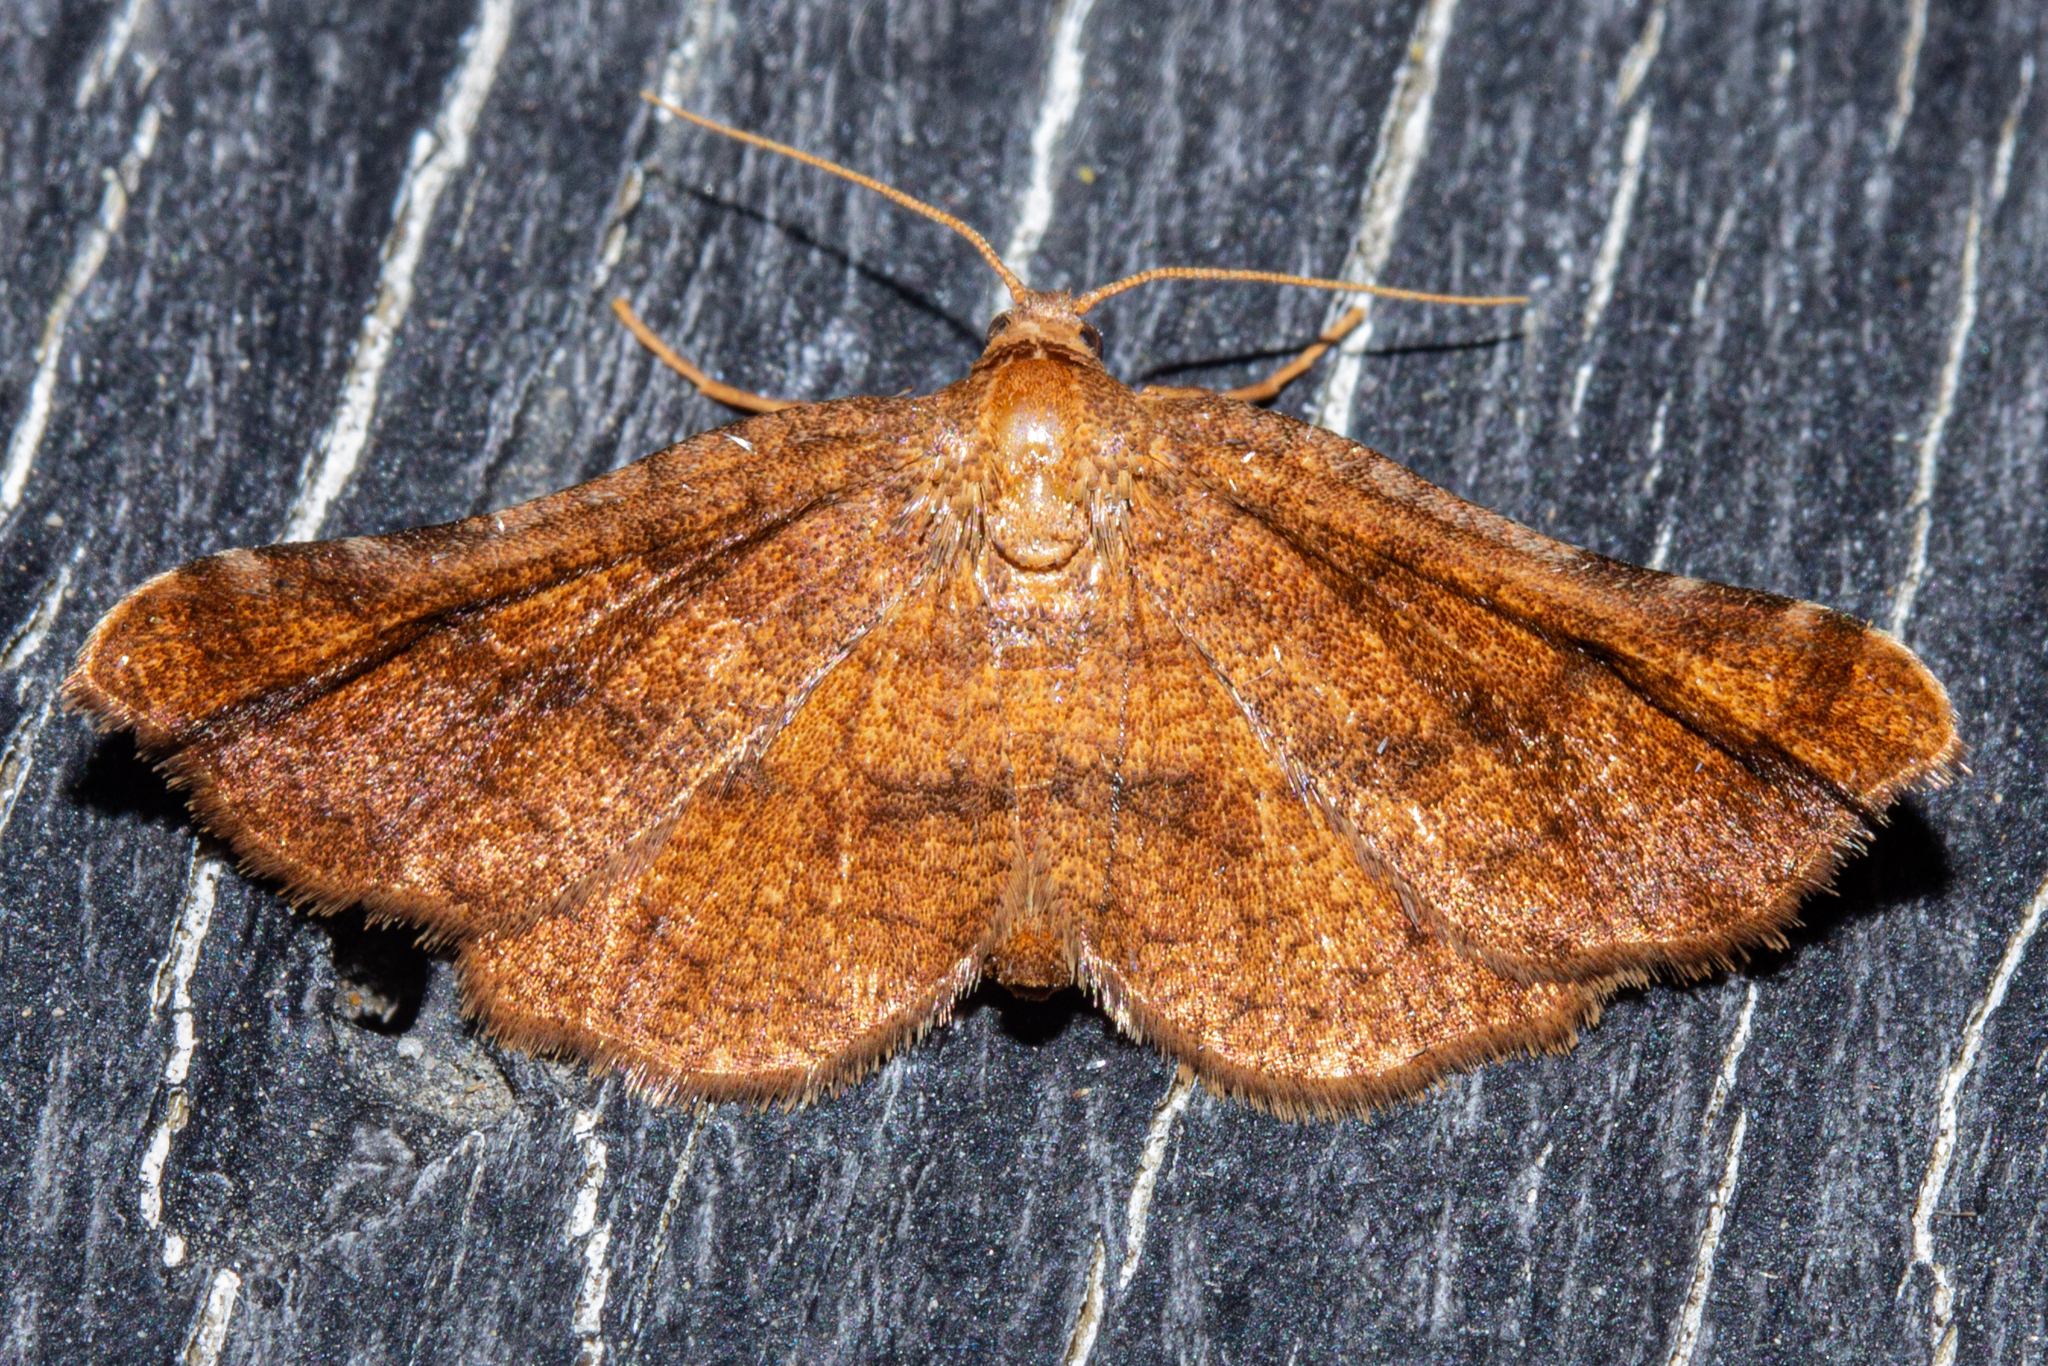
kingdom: Animalia
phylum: Arthropoda
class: Insecta
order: Lepidoptera
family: Thyrididae
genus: Morova
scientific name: Morova subfasciata
